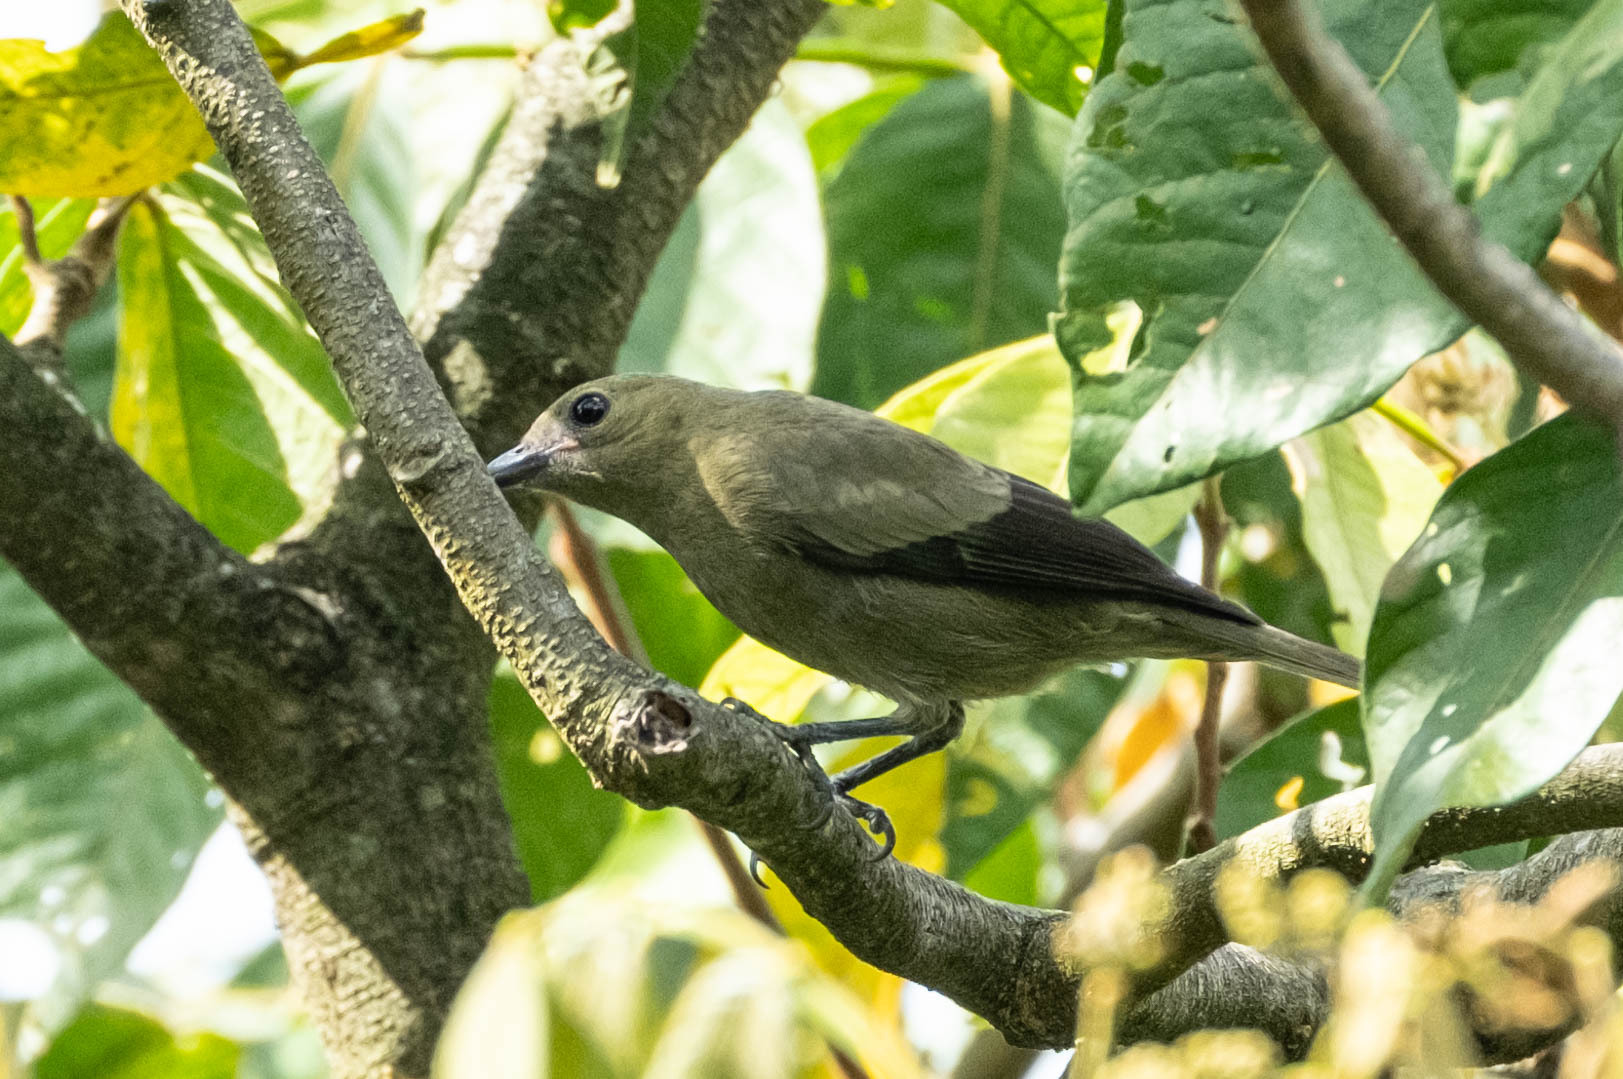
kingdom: Animalia
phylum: Chordata
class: Aves
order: Passeriformes
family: Thraupidae
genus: Thraupis
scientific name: Thraupis palmarum
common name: Palm tanager
